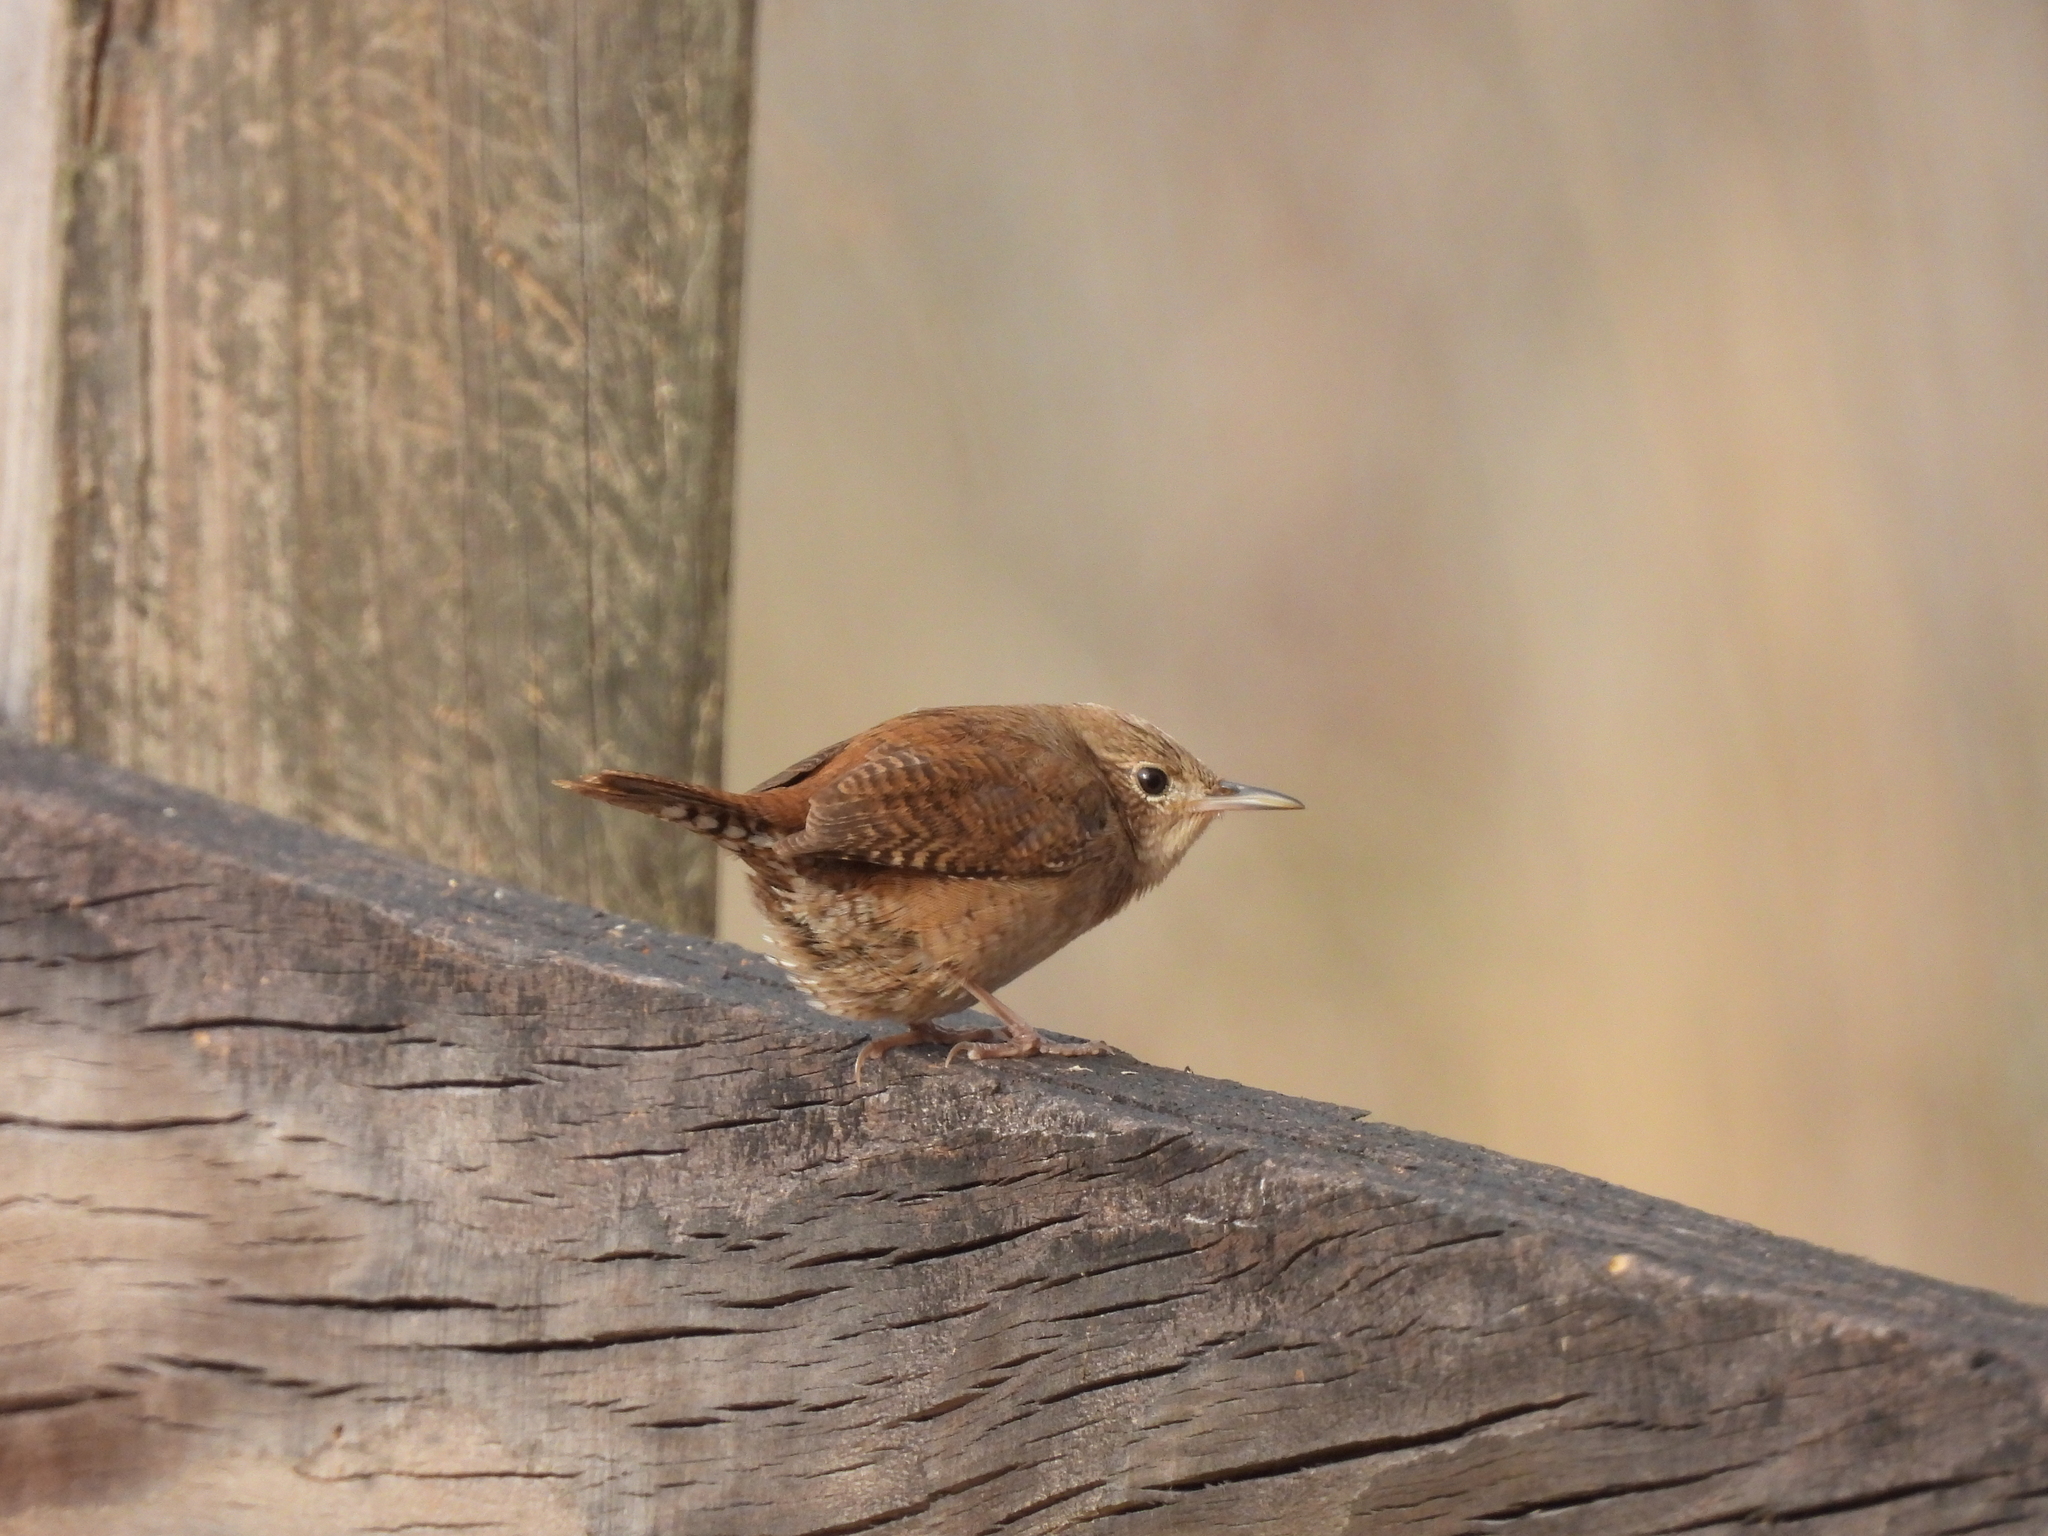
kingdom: Animalia
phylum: Chordata
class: Aves
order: Passeriformes
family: Troglodytidae
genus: Troglodytes
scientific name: Troglodytes aedon
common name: House wren
